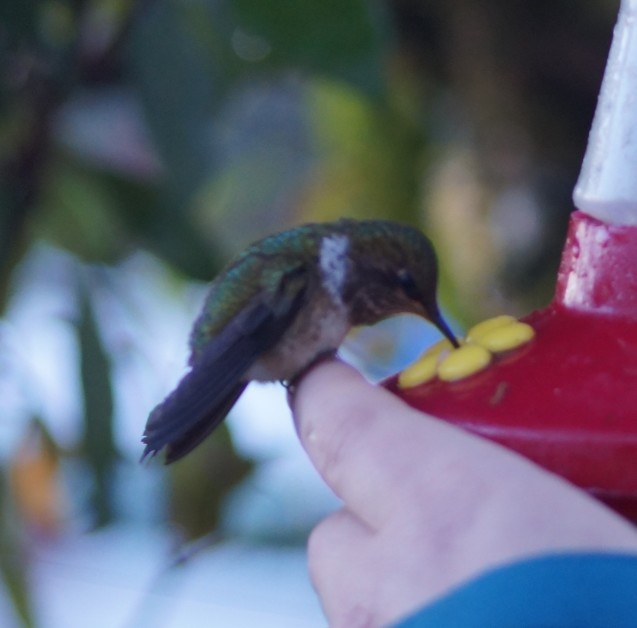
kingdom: Animalia
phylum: Chordata
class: Aves
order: Apodiformes
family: Trochilidae
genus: Selasphorus
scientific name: Selasphorus flammula
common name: Volcano hummingbird
